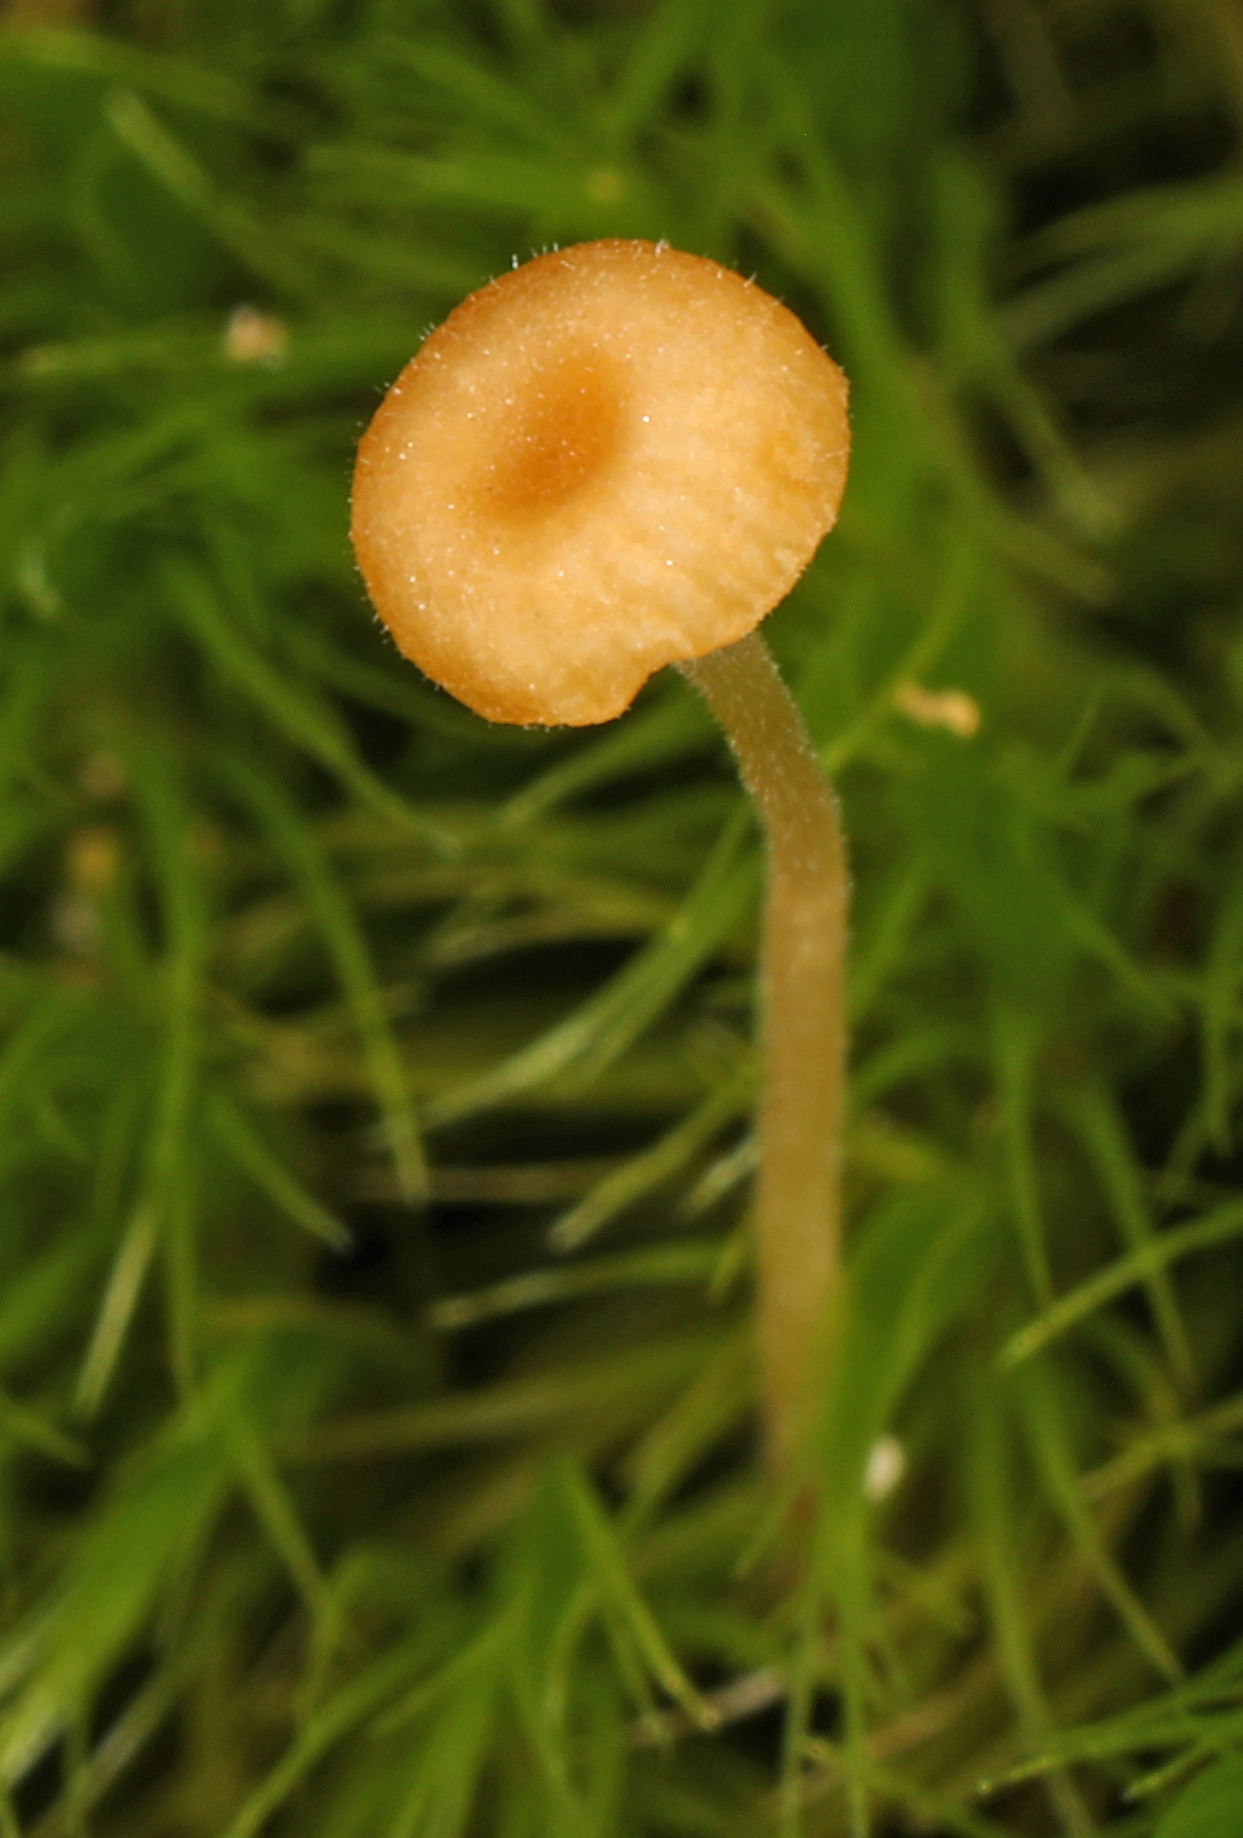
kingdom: Fungi
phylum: Basidiomycota
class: Agaricomycetes
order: Hymenochaetales
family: Rickenellaceae
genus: Rickenella
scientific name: Rickenella fibula
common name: Orange mosscap
